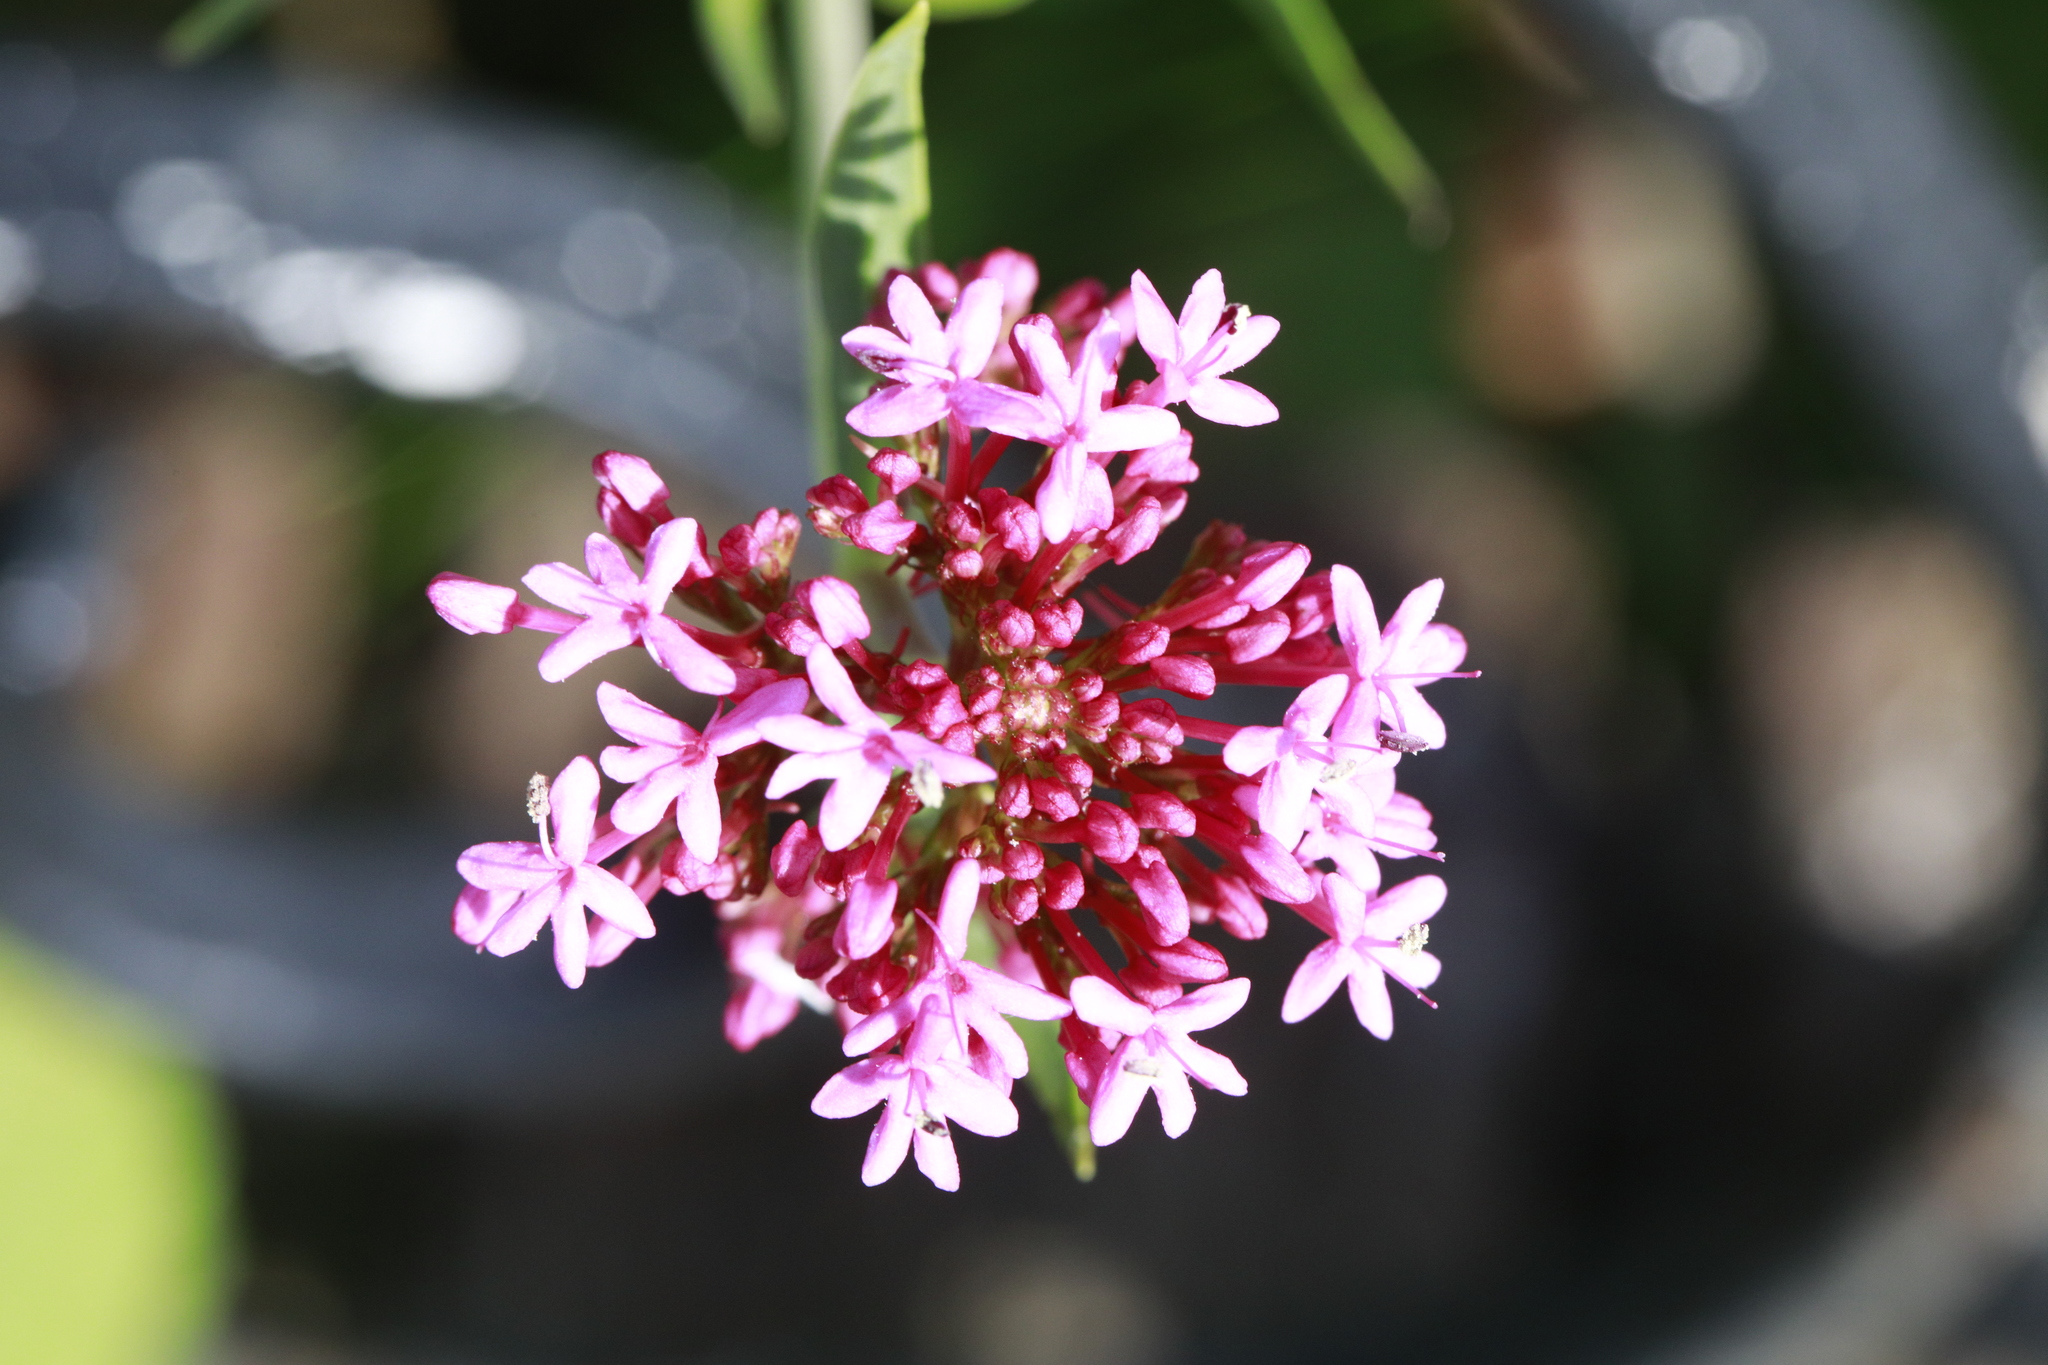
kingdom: Plantae
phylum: Tracheophyta
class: Magnoliopsida
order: Dipsacales
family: Caprifoliaceae
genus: Centranthus
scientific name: Centranthus ruber
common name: Red valerian
